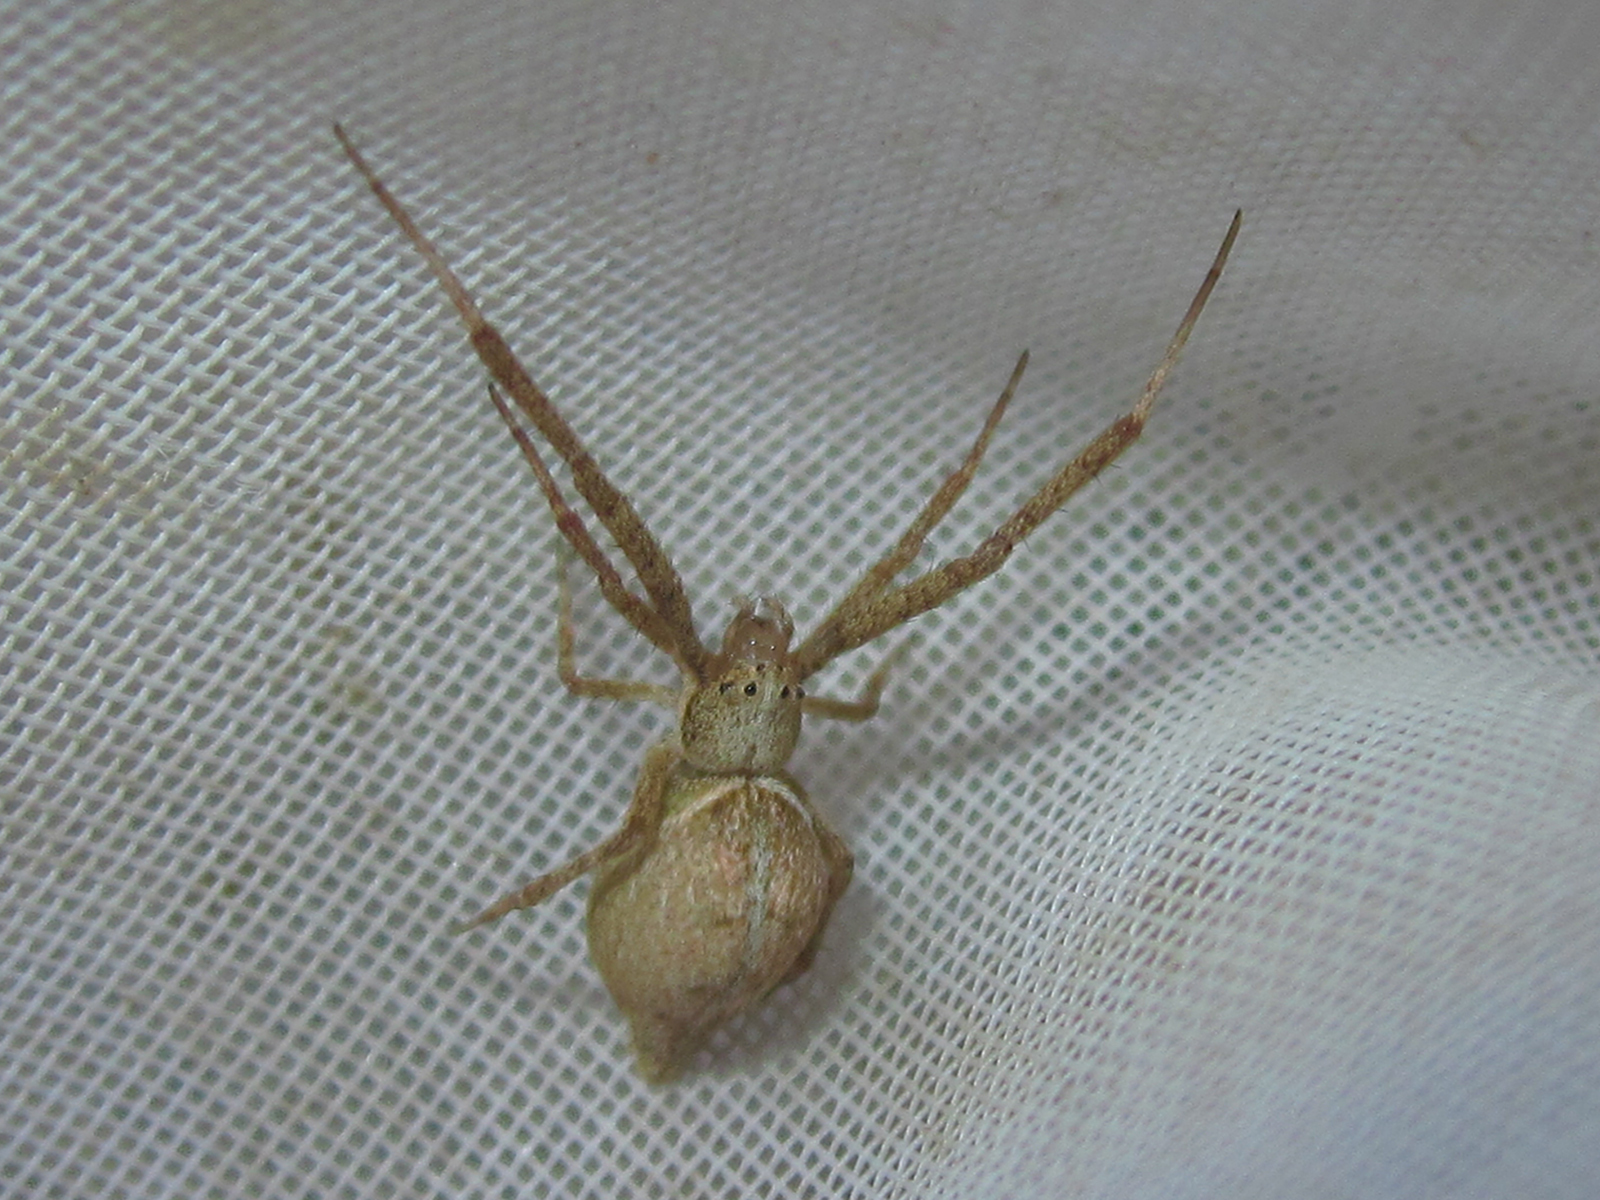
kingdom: Animalia
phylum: Arthropoda
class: Arachnida
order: Araneae
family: Uloboridae
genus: Sybota
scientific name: Sybota abdominalis
